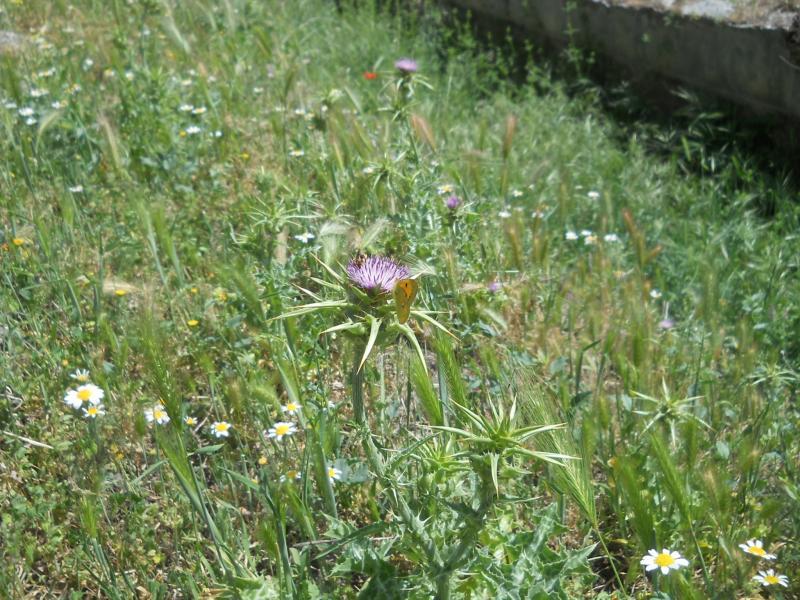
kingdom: Plantae
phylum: Tracheophyta
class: Magnoliopsida
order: Asterales
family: Asteraceae
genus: Silybum
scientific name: Silybum marianum
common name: Milk thistle
